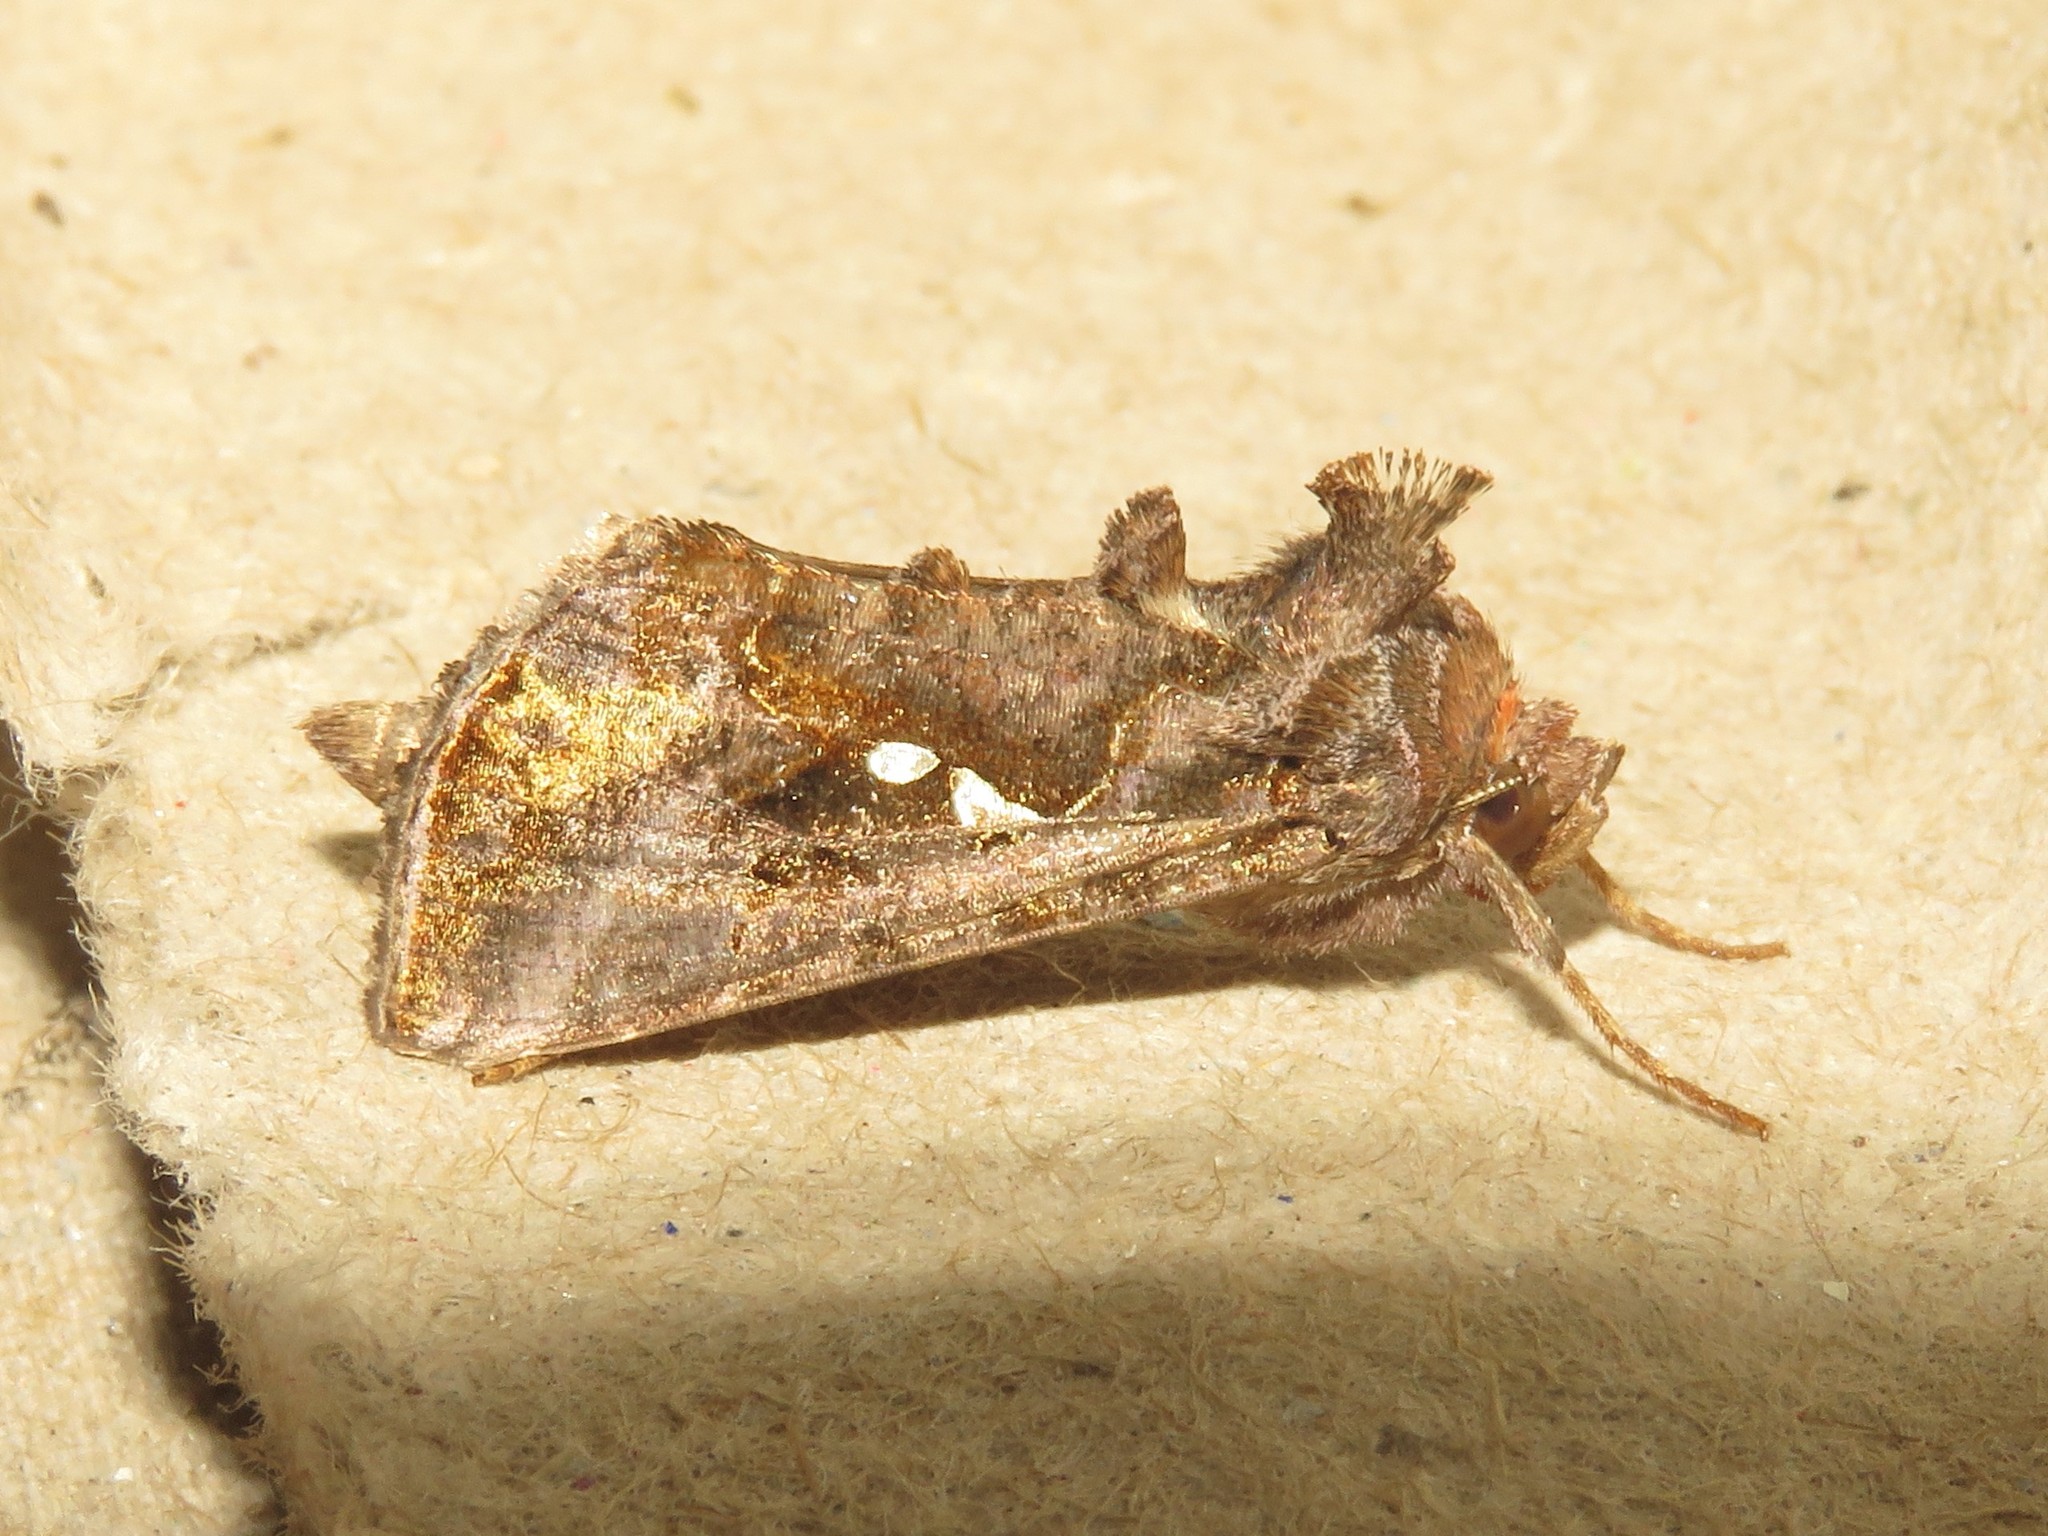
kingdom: Animalia
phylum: Arthropoda
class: Insecta
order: Lepidoptera
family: Noctuidae
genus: Autographa
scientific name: Autographa precationis
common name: Common looper moth
